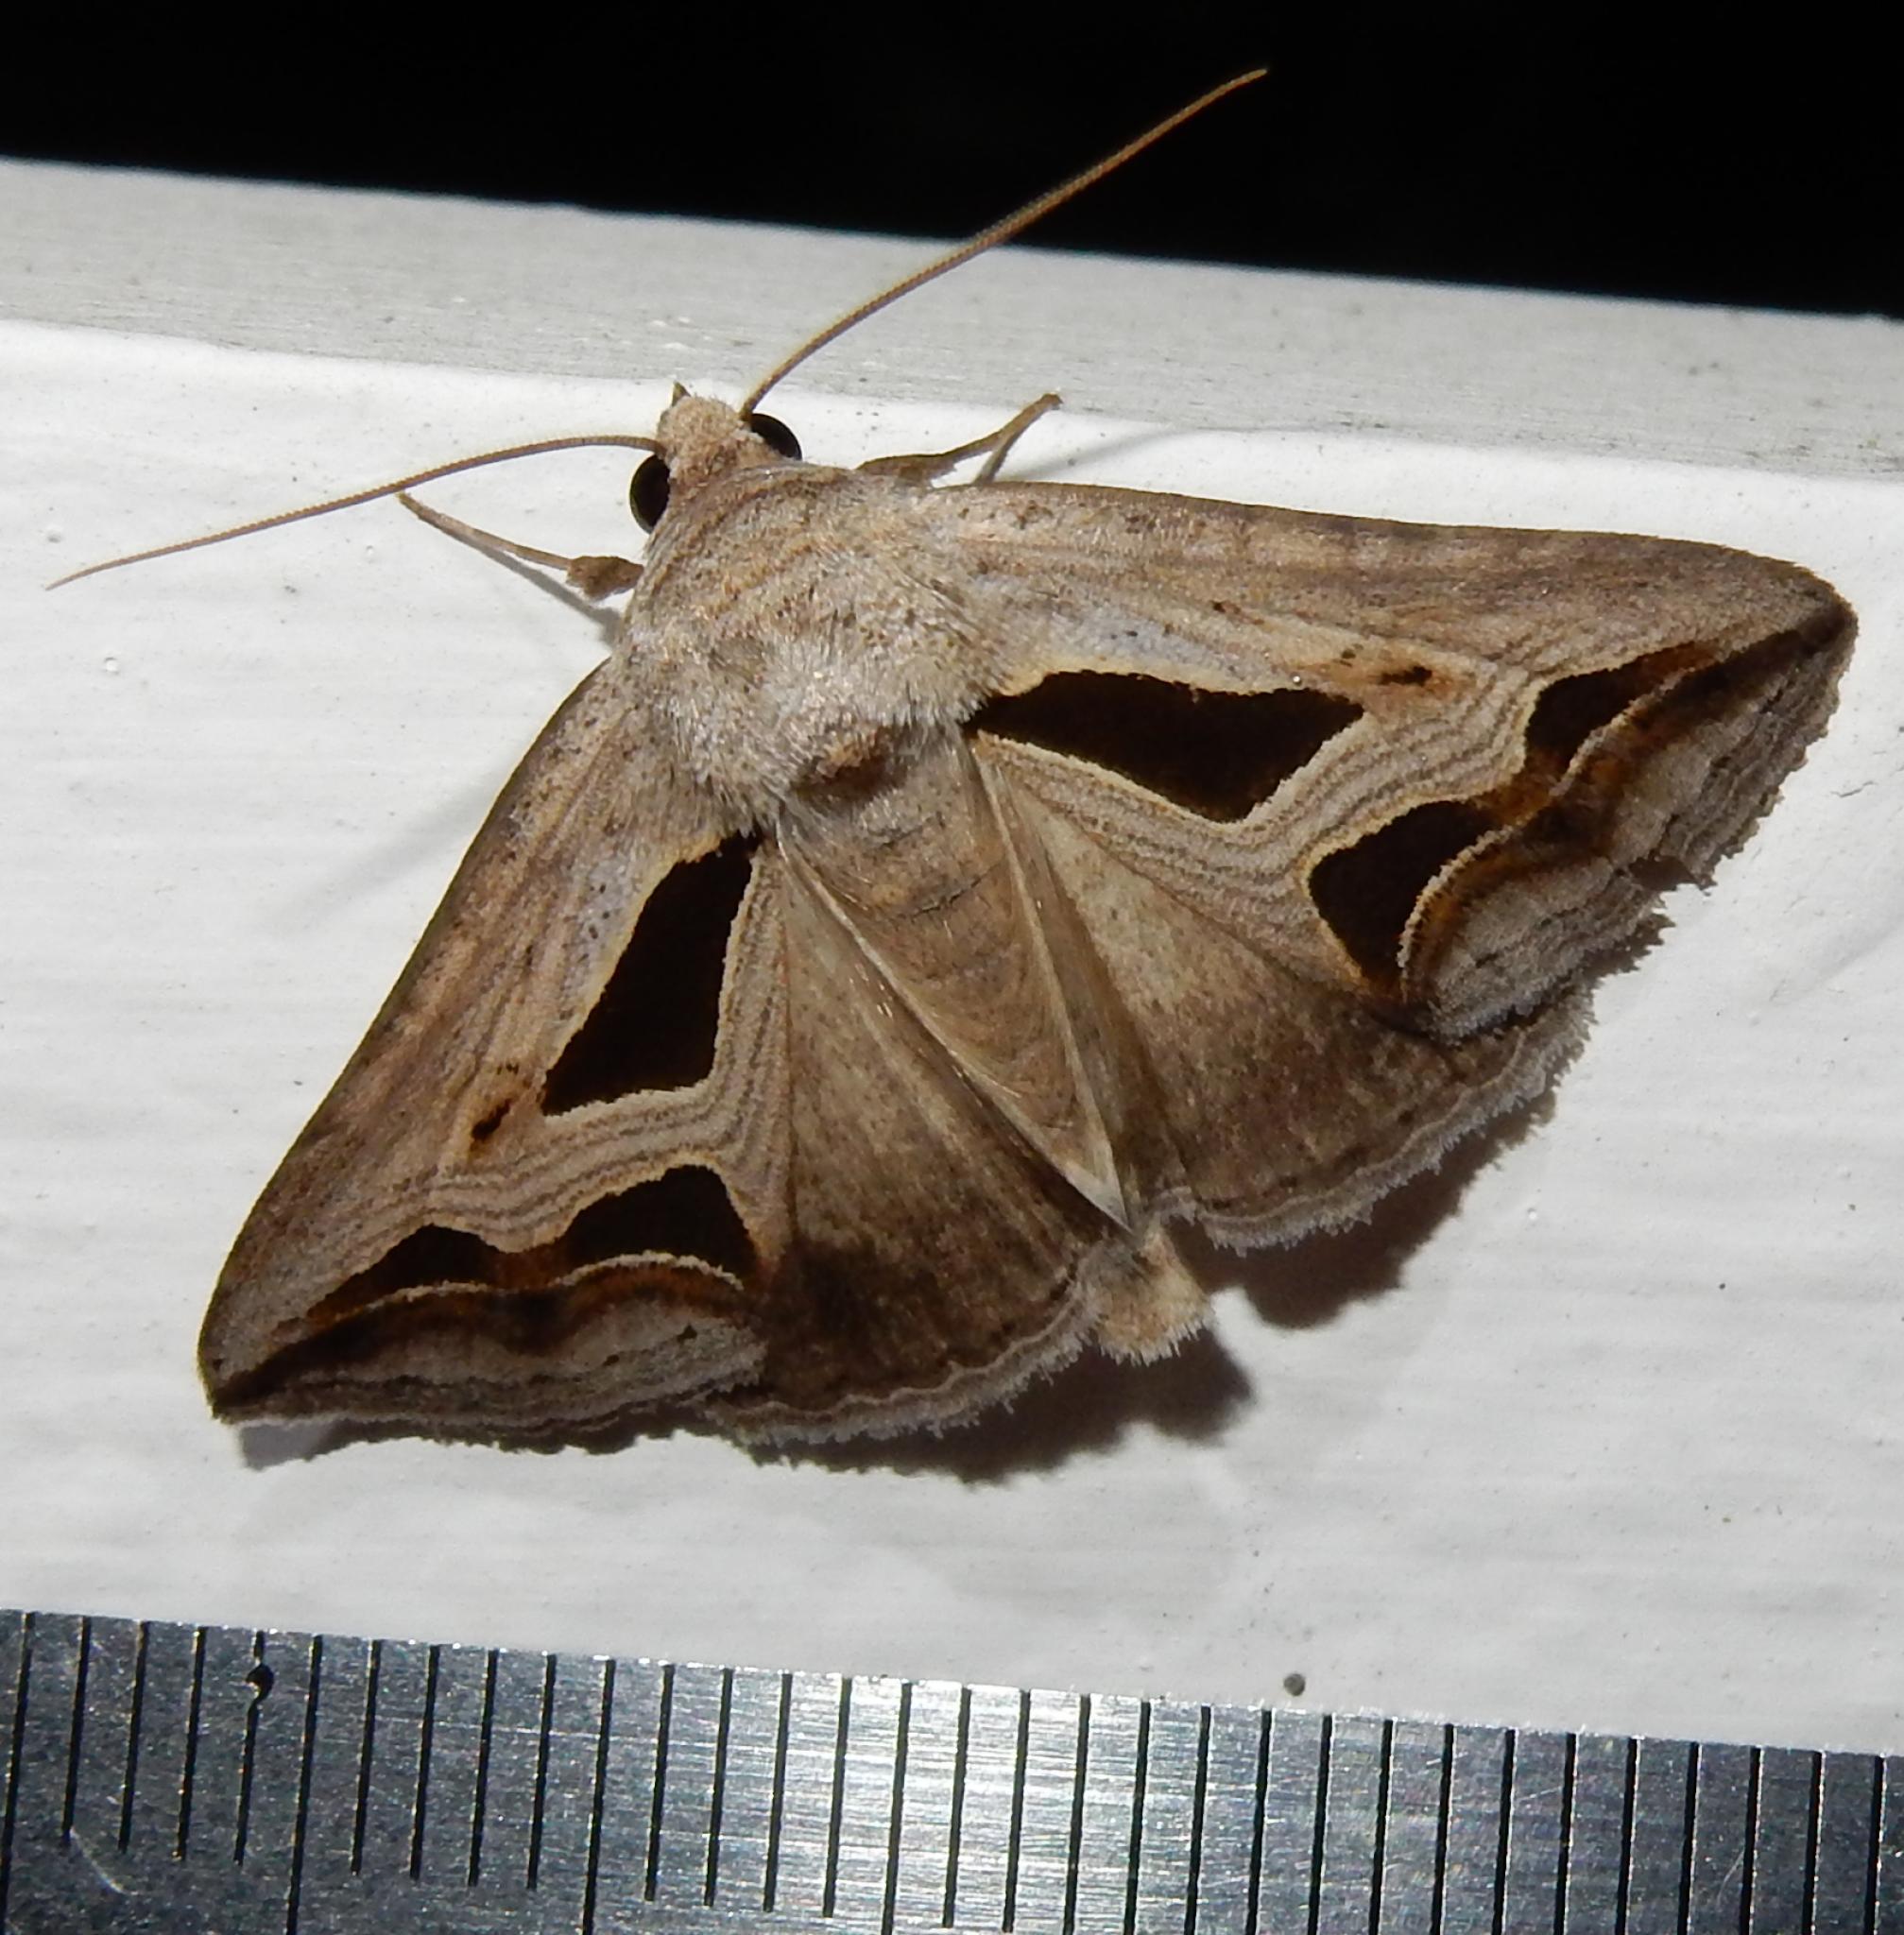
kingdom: Animalia
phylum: Arthropoda
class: Insecta
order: Lepidoptera
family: Erebidae
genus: Cuneisigna
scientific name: Cuneisigna obstans
